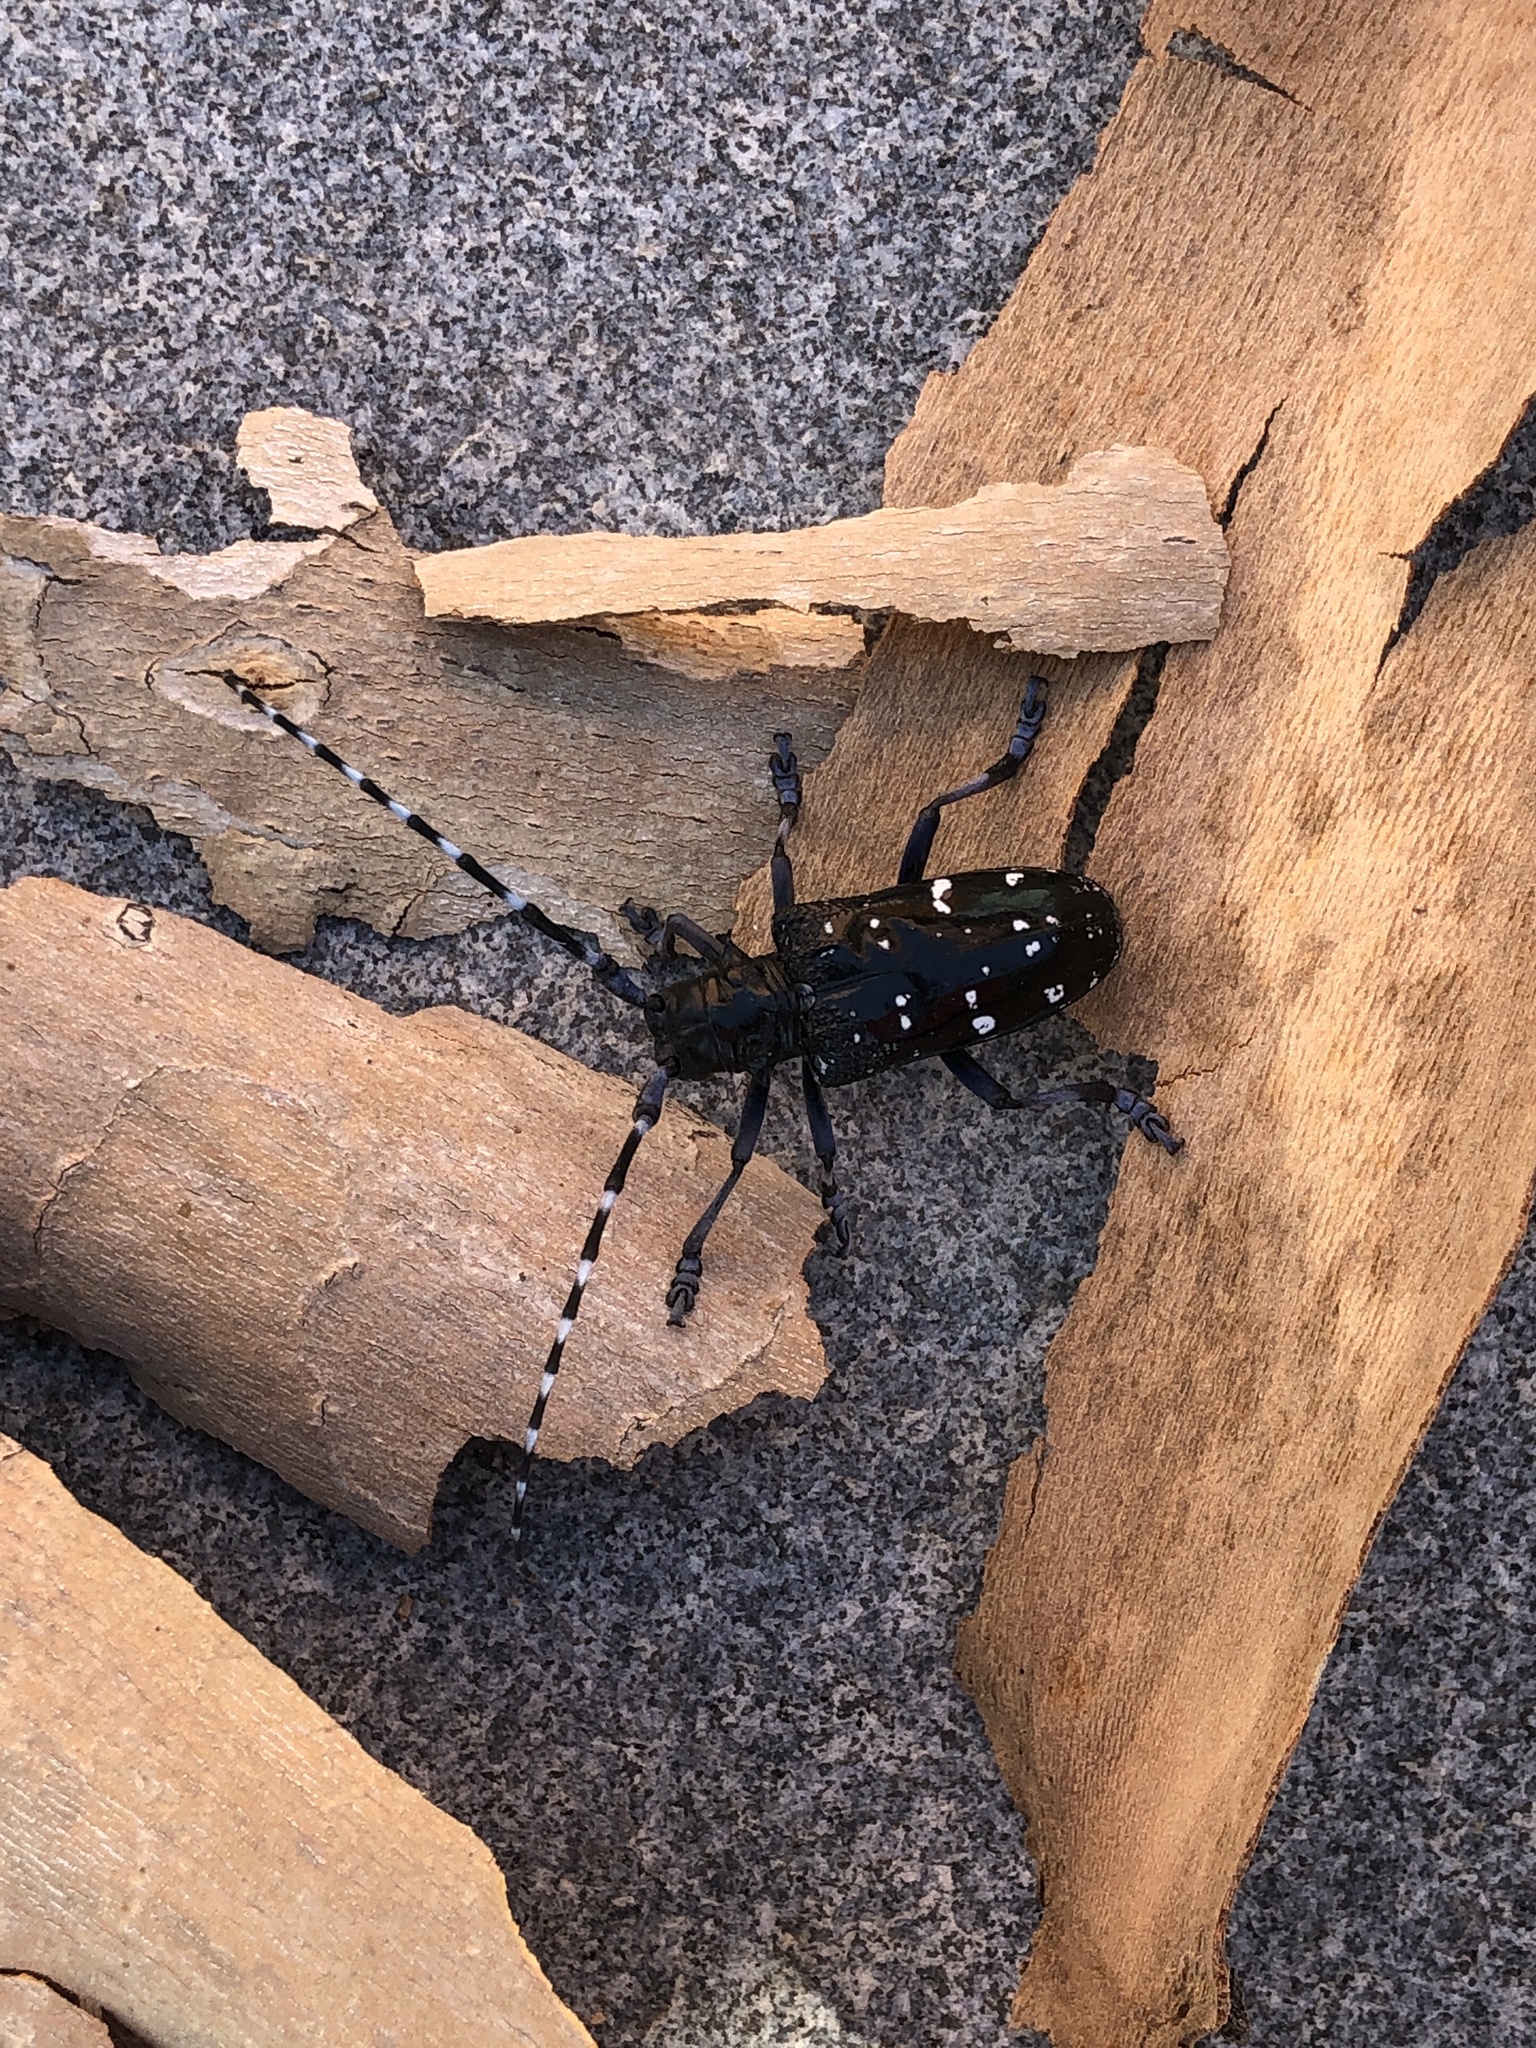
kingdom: Animalia
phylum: Arthropoda
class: Insecta
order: Coleoptera
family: Cerambycidae
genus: Anoplophora
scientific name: Anoplophora chinensis
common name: Citrus longhorned beetle
